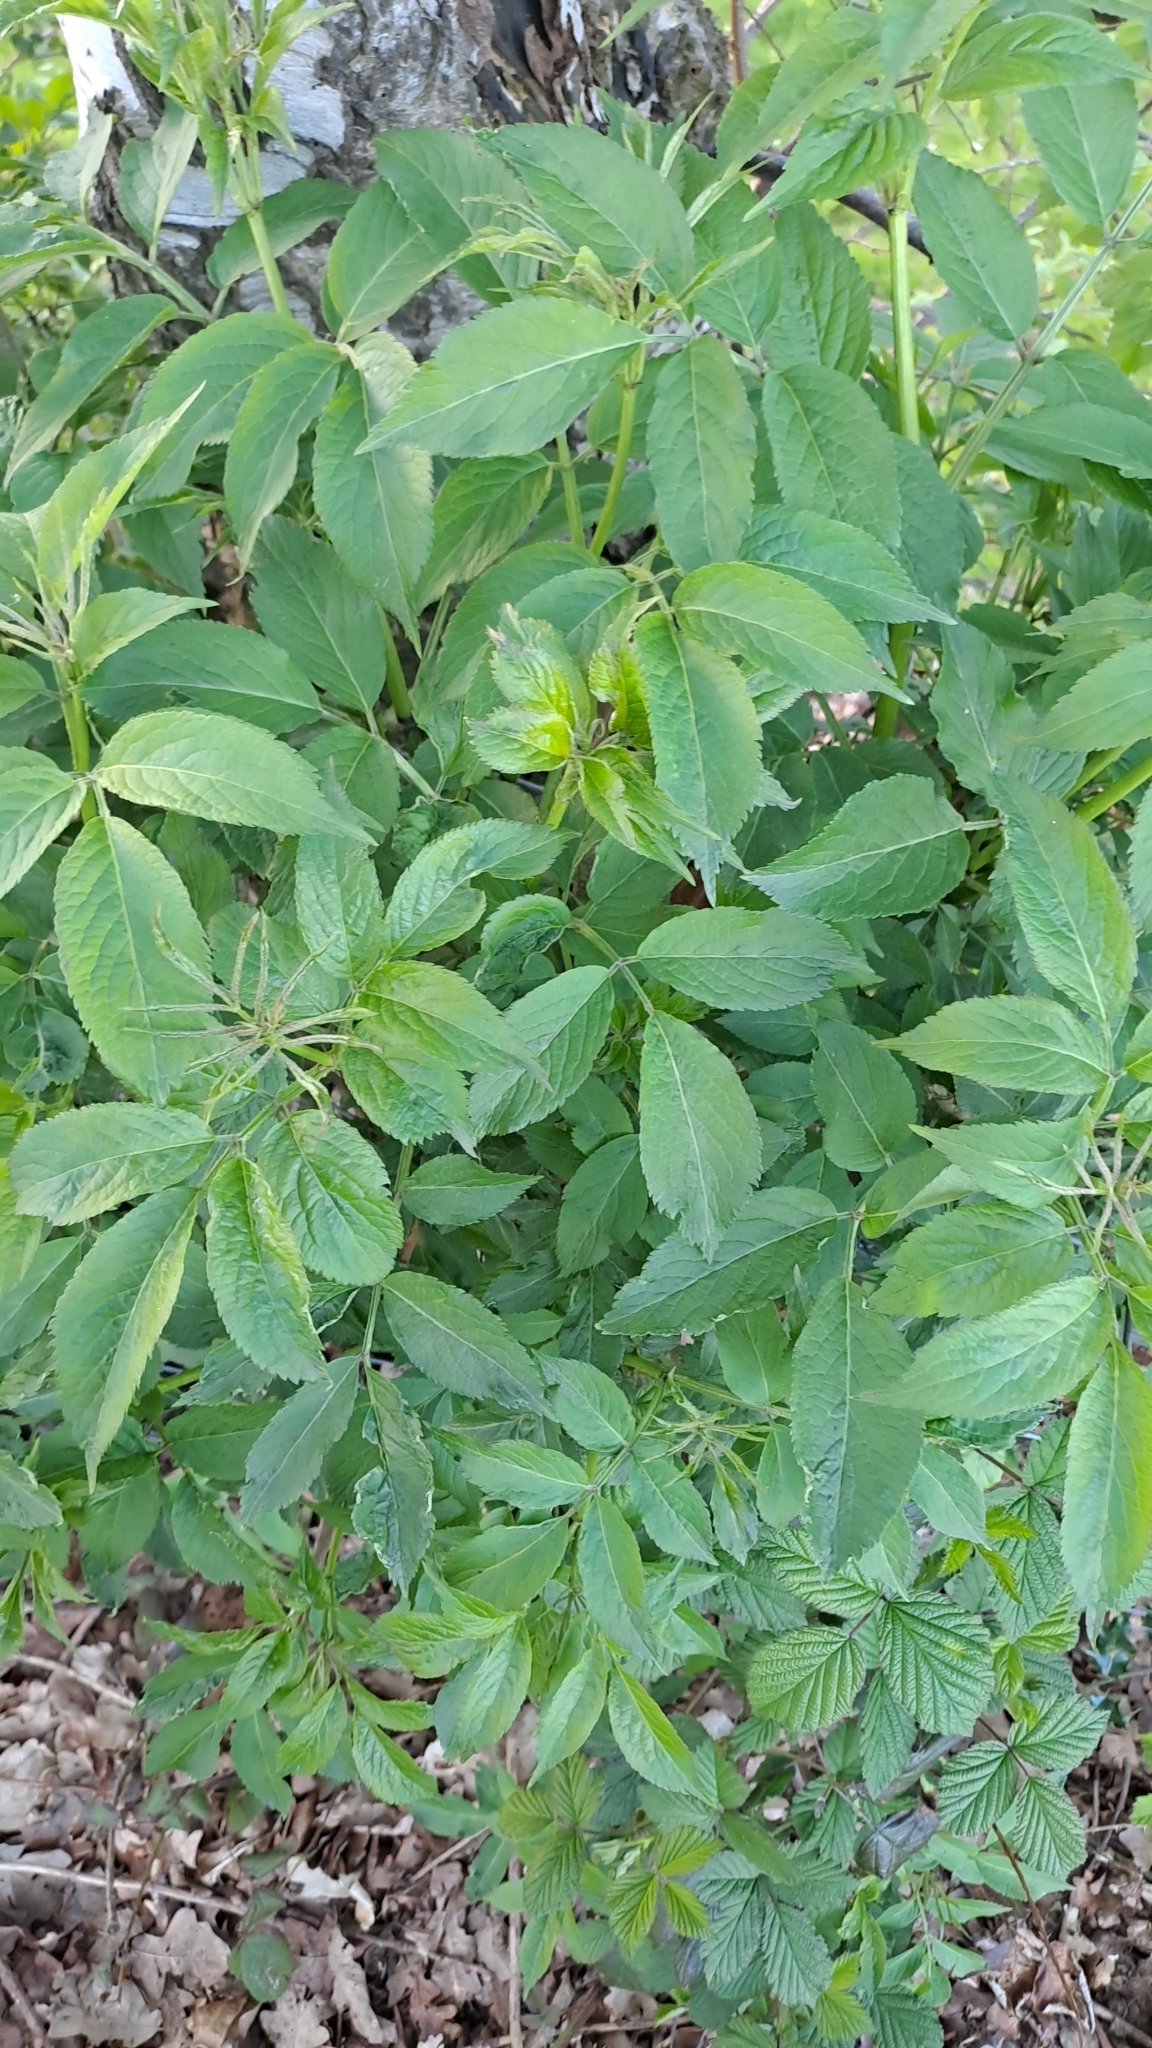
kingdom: Plantae
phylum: Tracheophyta
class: Magnoliopsida
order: Dipsacales
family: Viburnaceae
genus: Sambucus
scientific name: Sambucus nigra
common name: Elder
